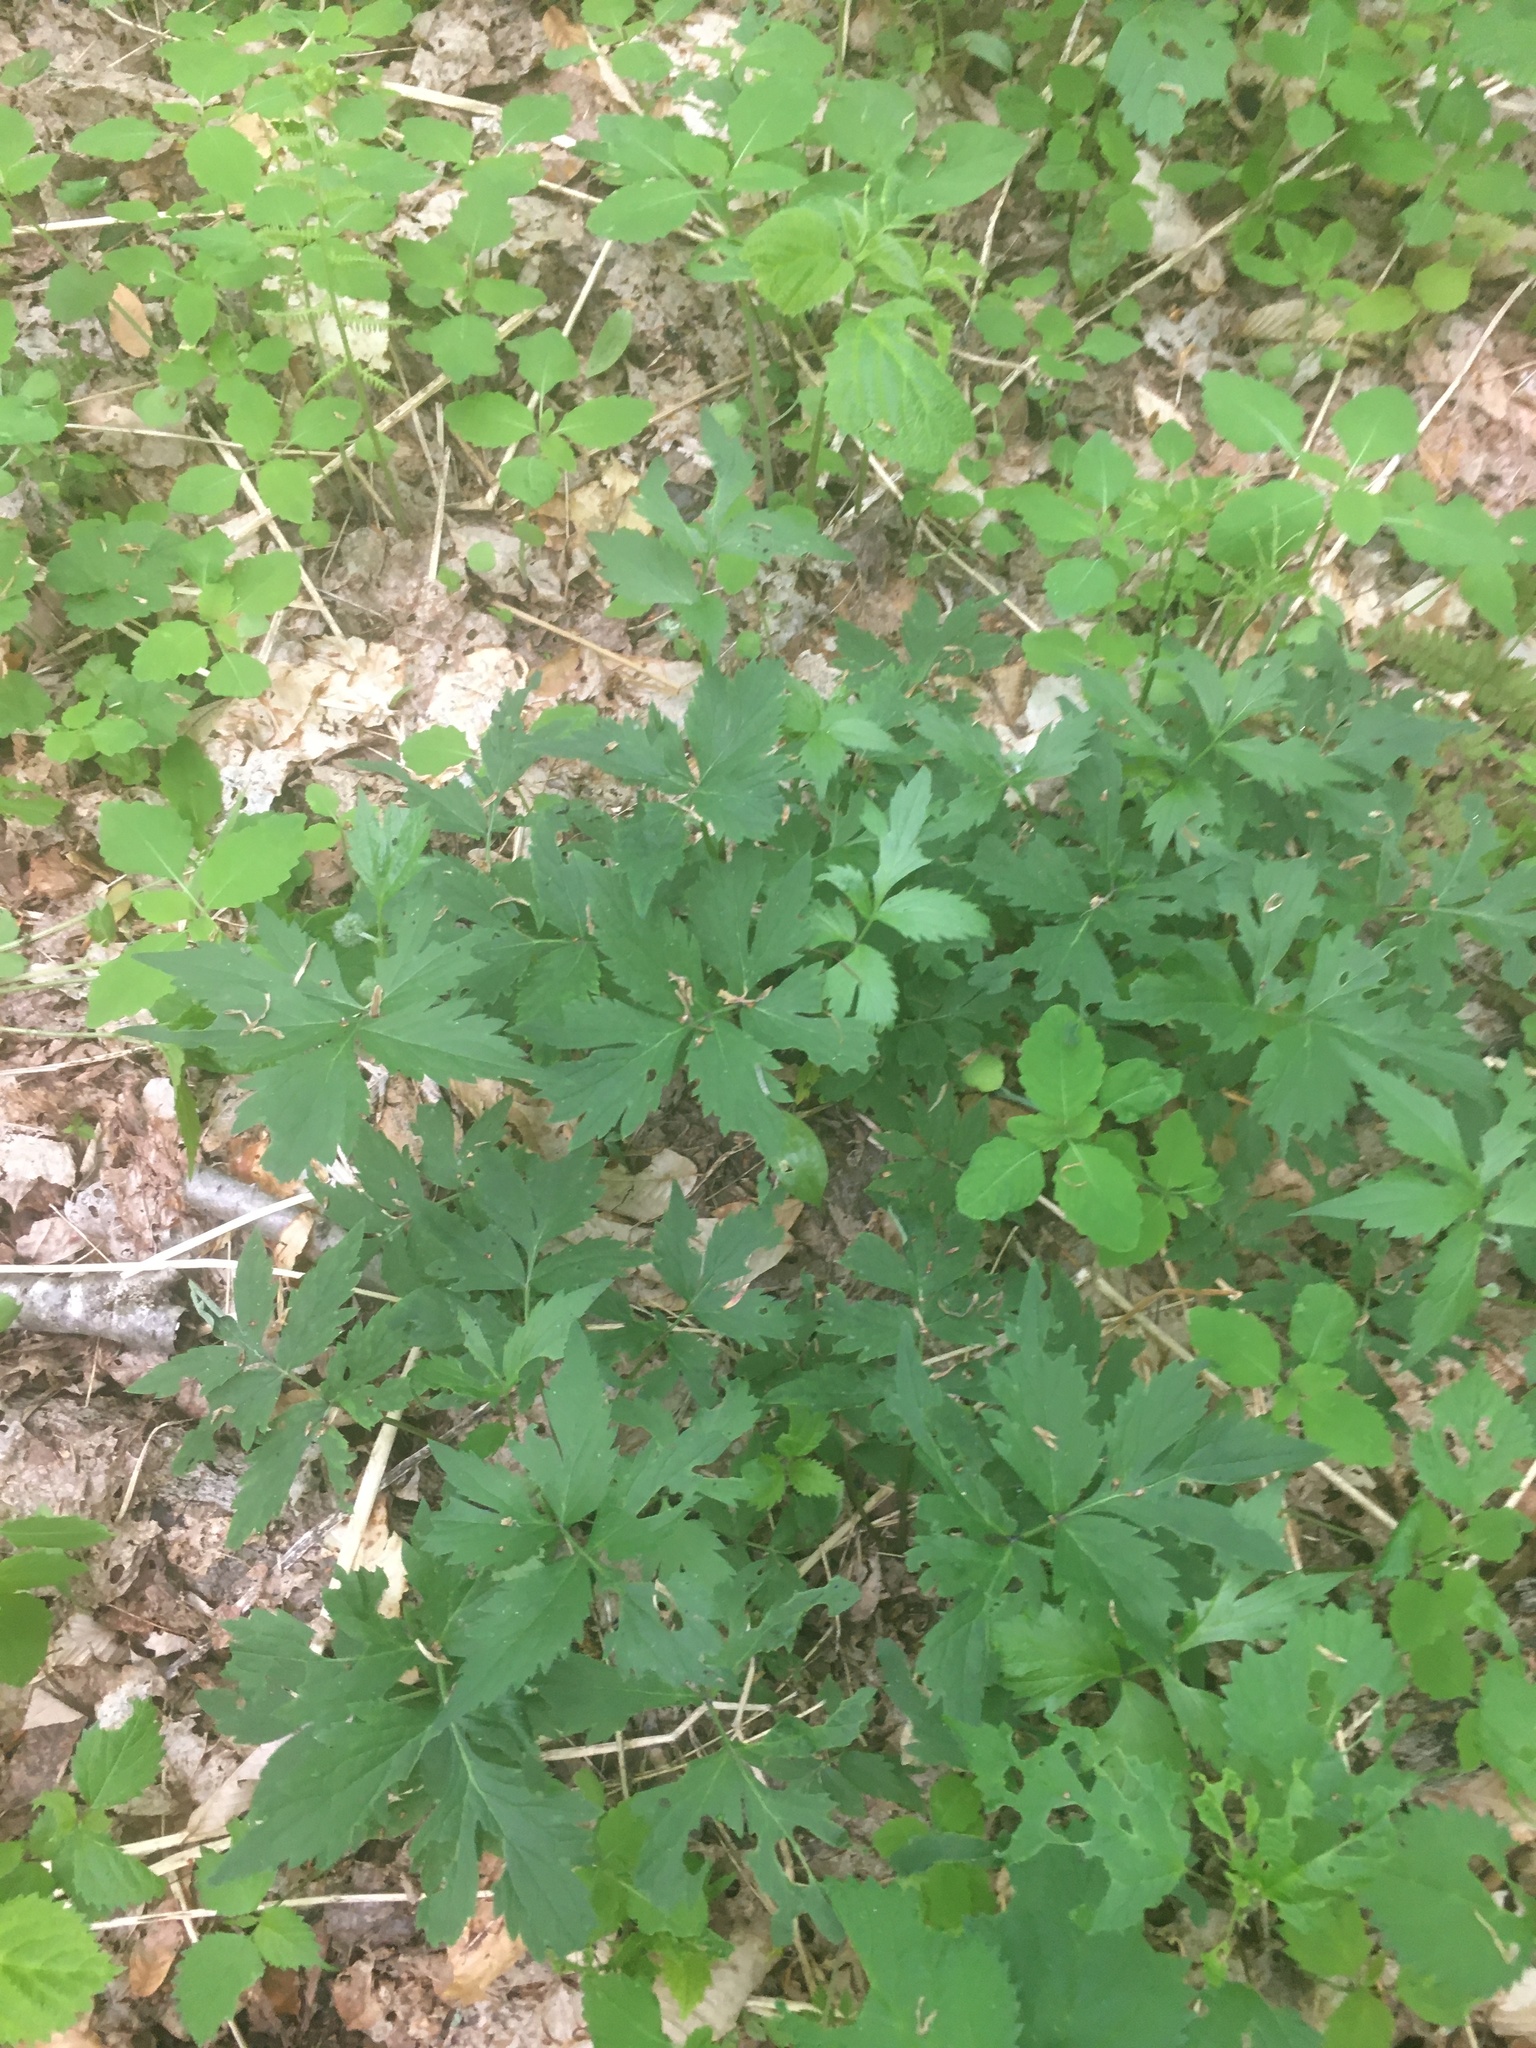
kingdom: Plantae
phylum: Tracheophyta
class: Magnoliopsida
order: Boraginales
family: Hydrophyllaceae
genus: Hydrophyllum
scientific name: Hydrophyllum virginianum
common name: Virginia waterleaf
